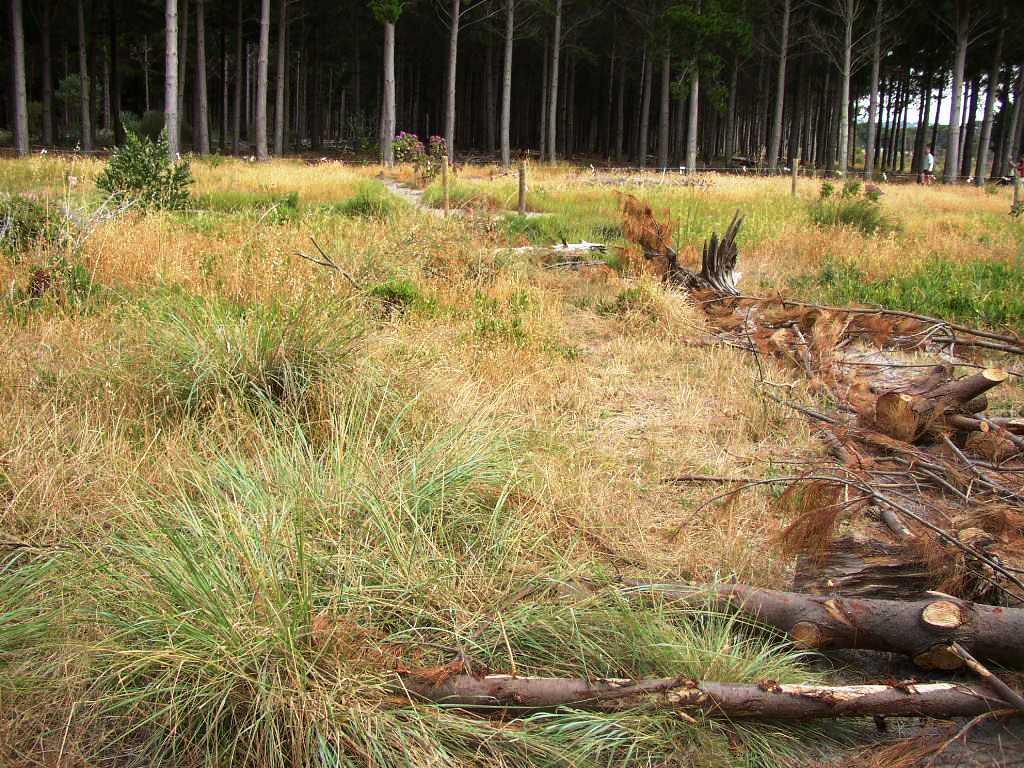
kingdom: Plantae
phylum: Tracheophyta
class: Liliopsida
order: Poales
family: Poaceae
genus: Eragrostis
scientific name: Eragrostis curvula
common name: African love-grass
